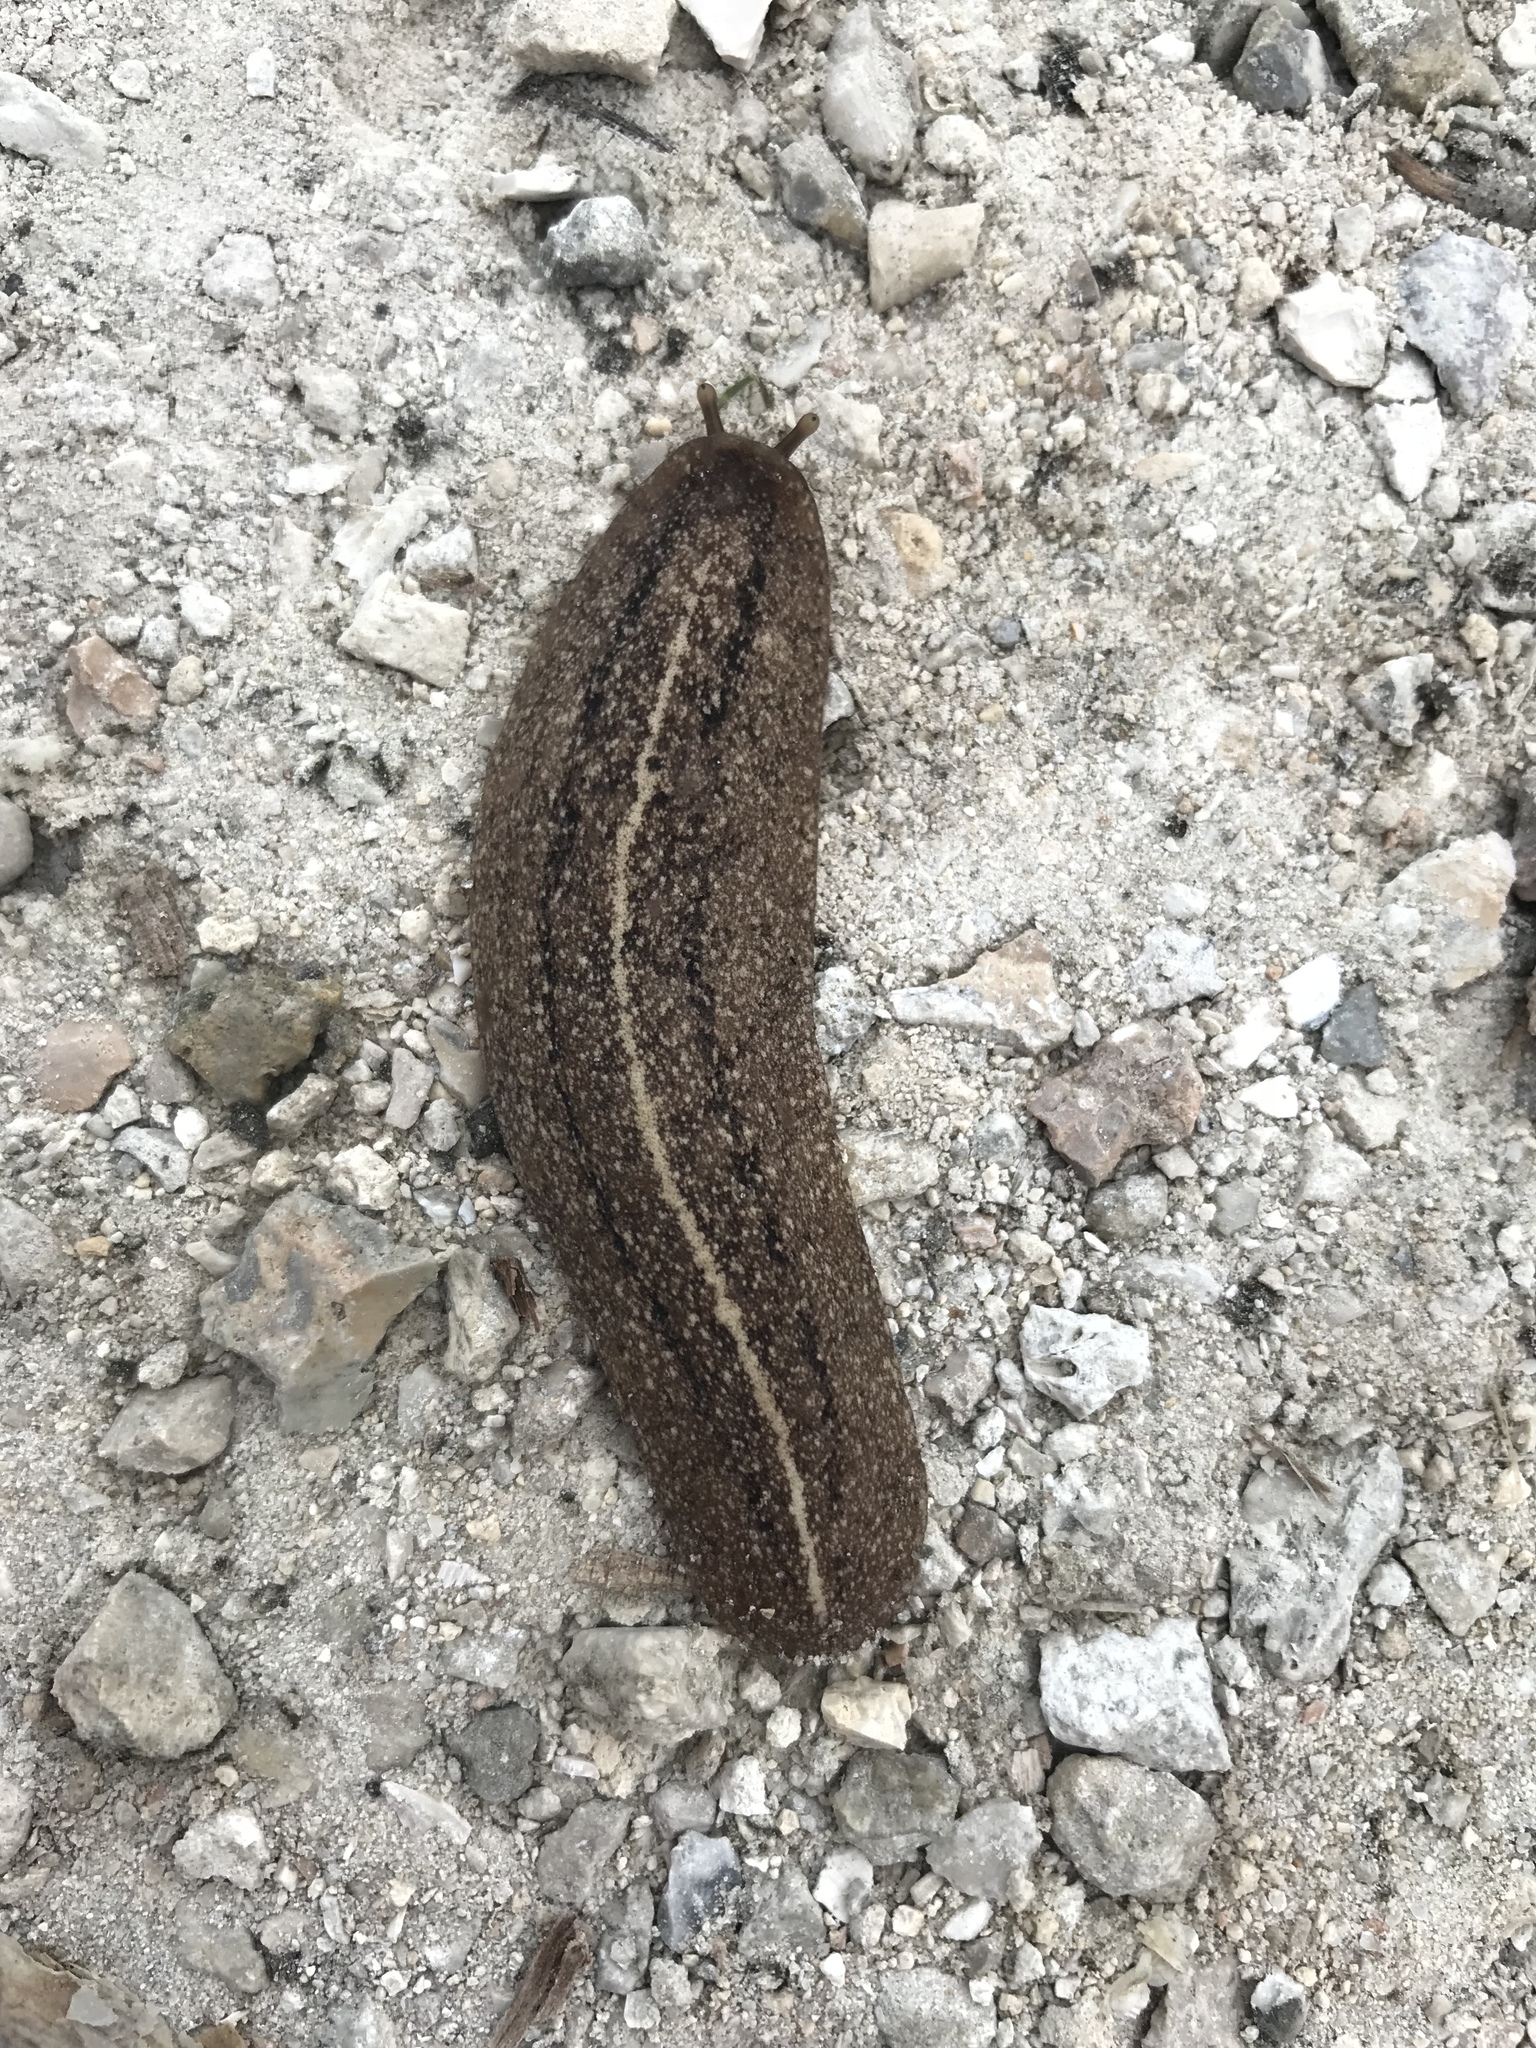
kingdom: Animalia
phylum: Mollusca
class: Gastropoda
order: Systellommatophora
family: Veronicellidae
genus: Leidyula
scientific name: Leidyula floridana
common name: Florida leatherleaf
